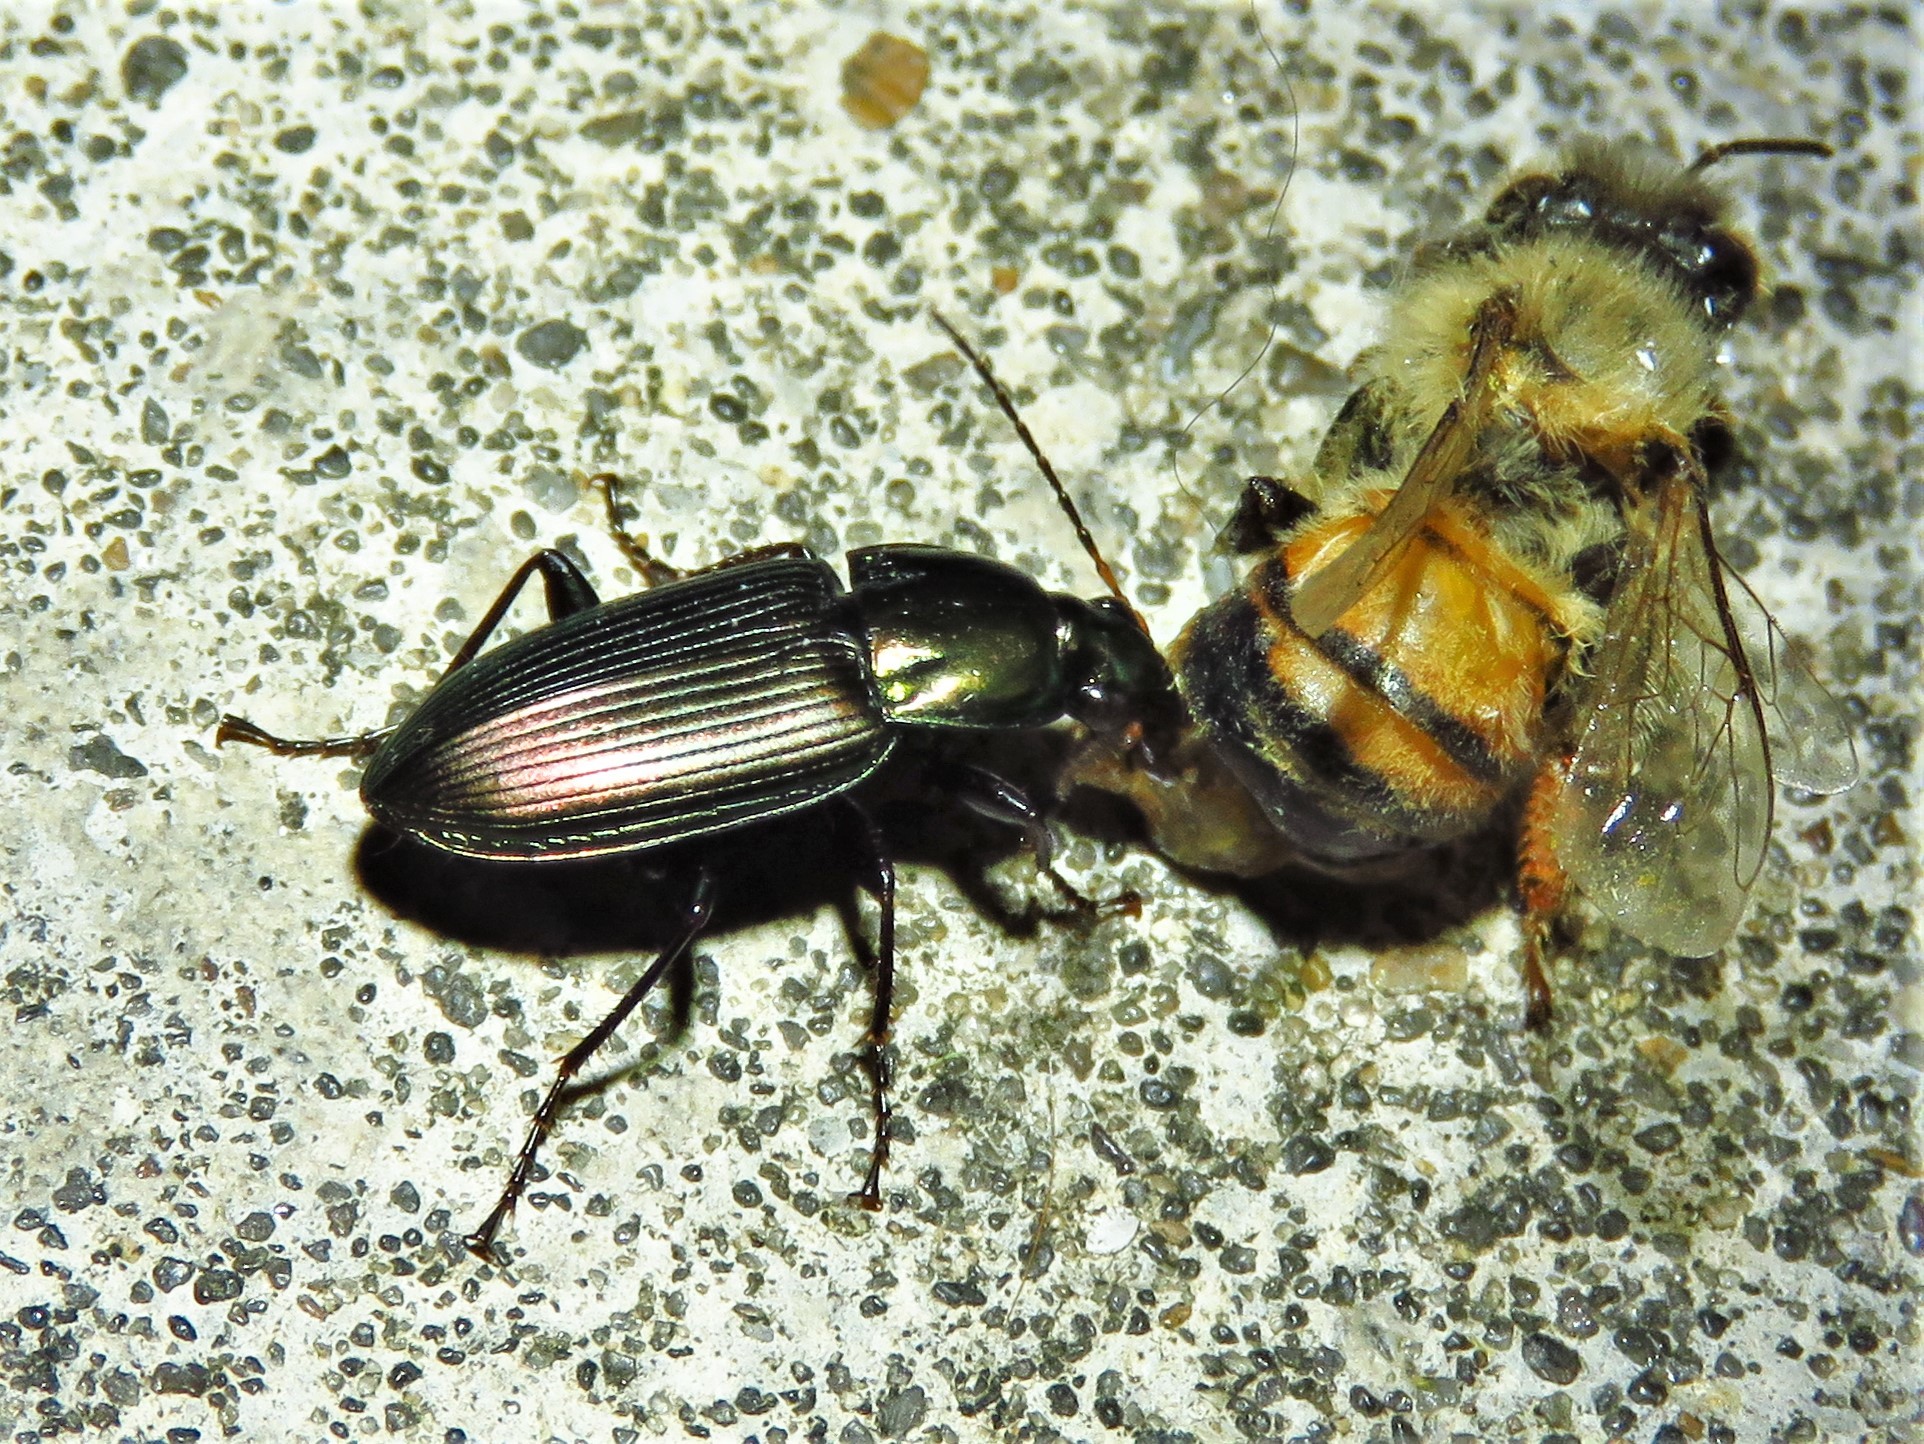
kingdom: Animalia
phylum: Arthropoda
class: Insecta
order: Coleoptera
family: Carabidae
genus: Poecilus
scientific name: Poecilus chalcites
